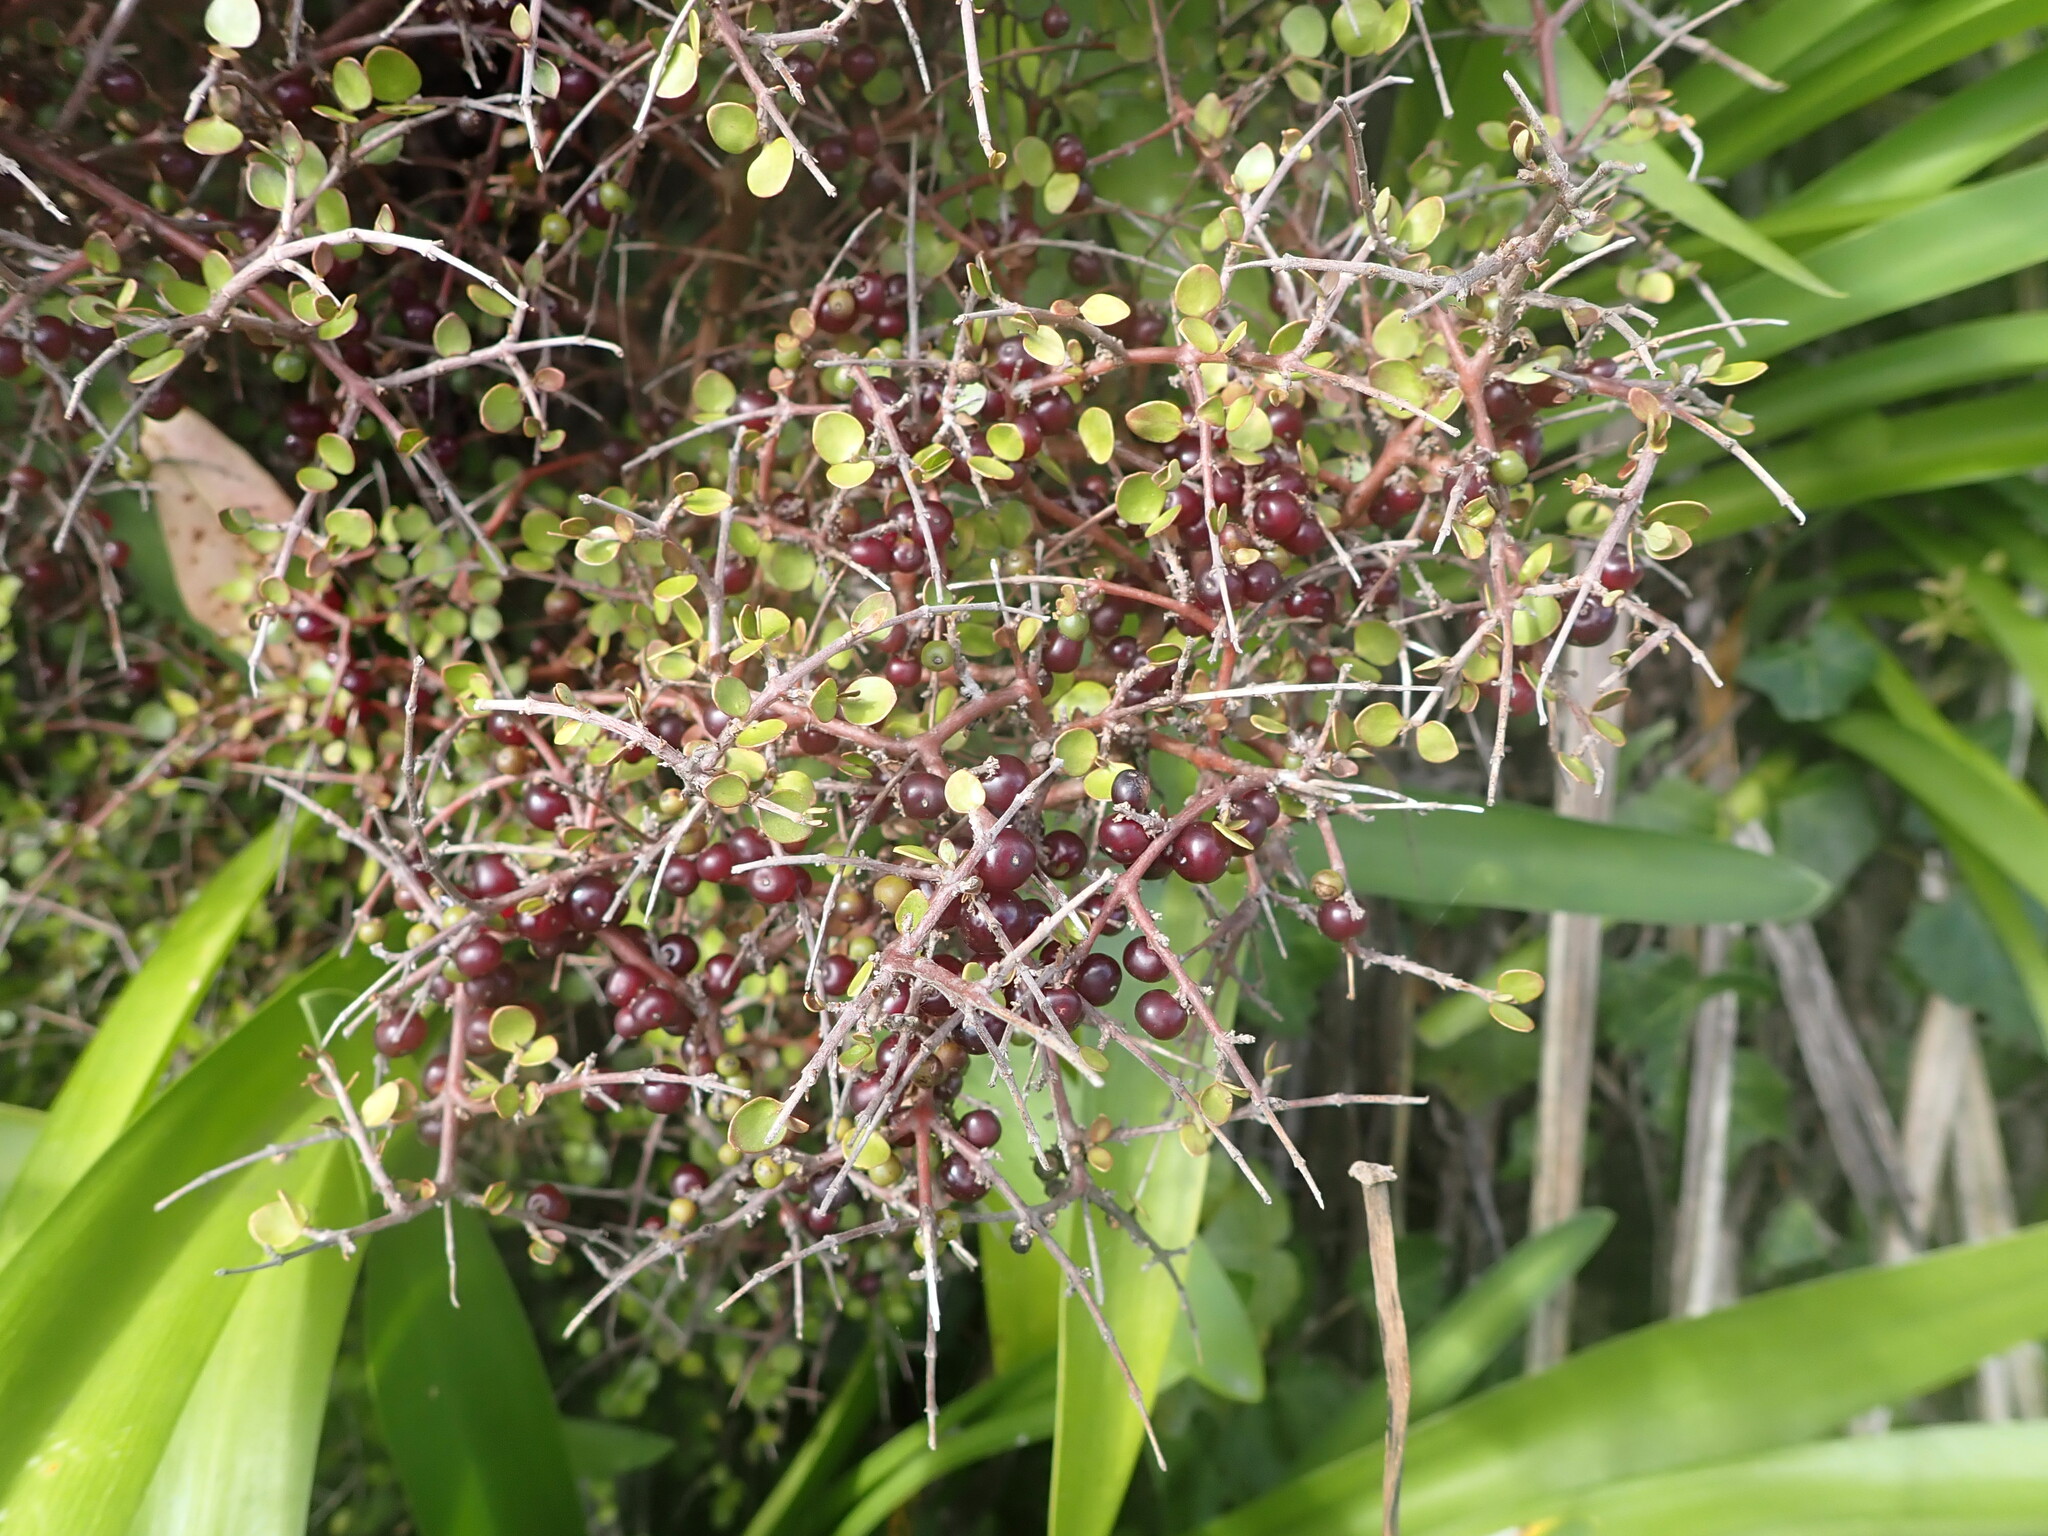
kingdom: Plantae
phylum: Tracheophyta
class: Magnoliopsida
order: Gentianales
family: Rubiaceae
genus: Coprosma
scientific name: Coprosma rhamnoides
